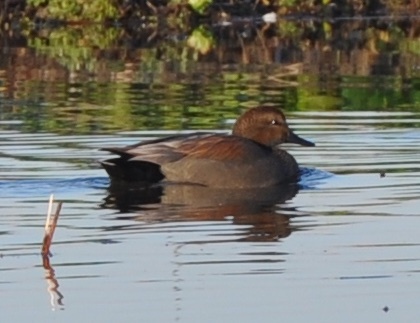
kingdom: Animalia
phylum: Chordata
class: Aves
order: Anseriformes
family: Anatidae
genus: Mareca
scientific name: Mareca strepera
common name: Gadwall
